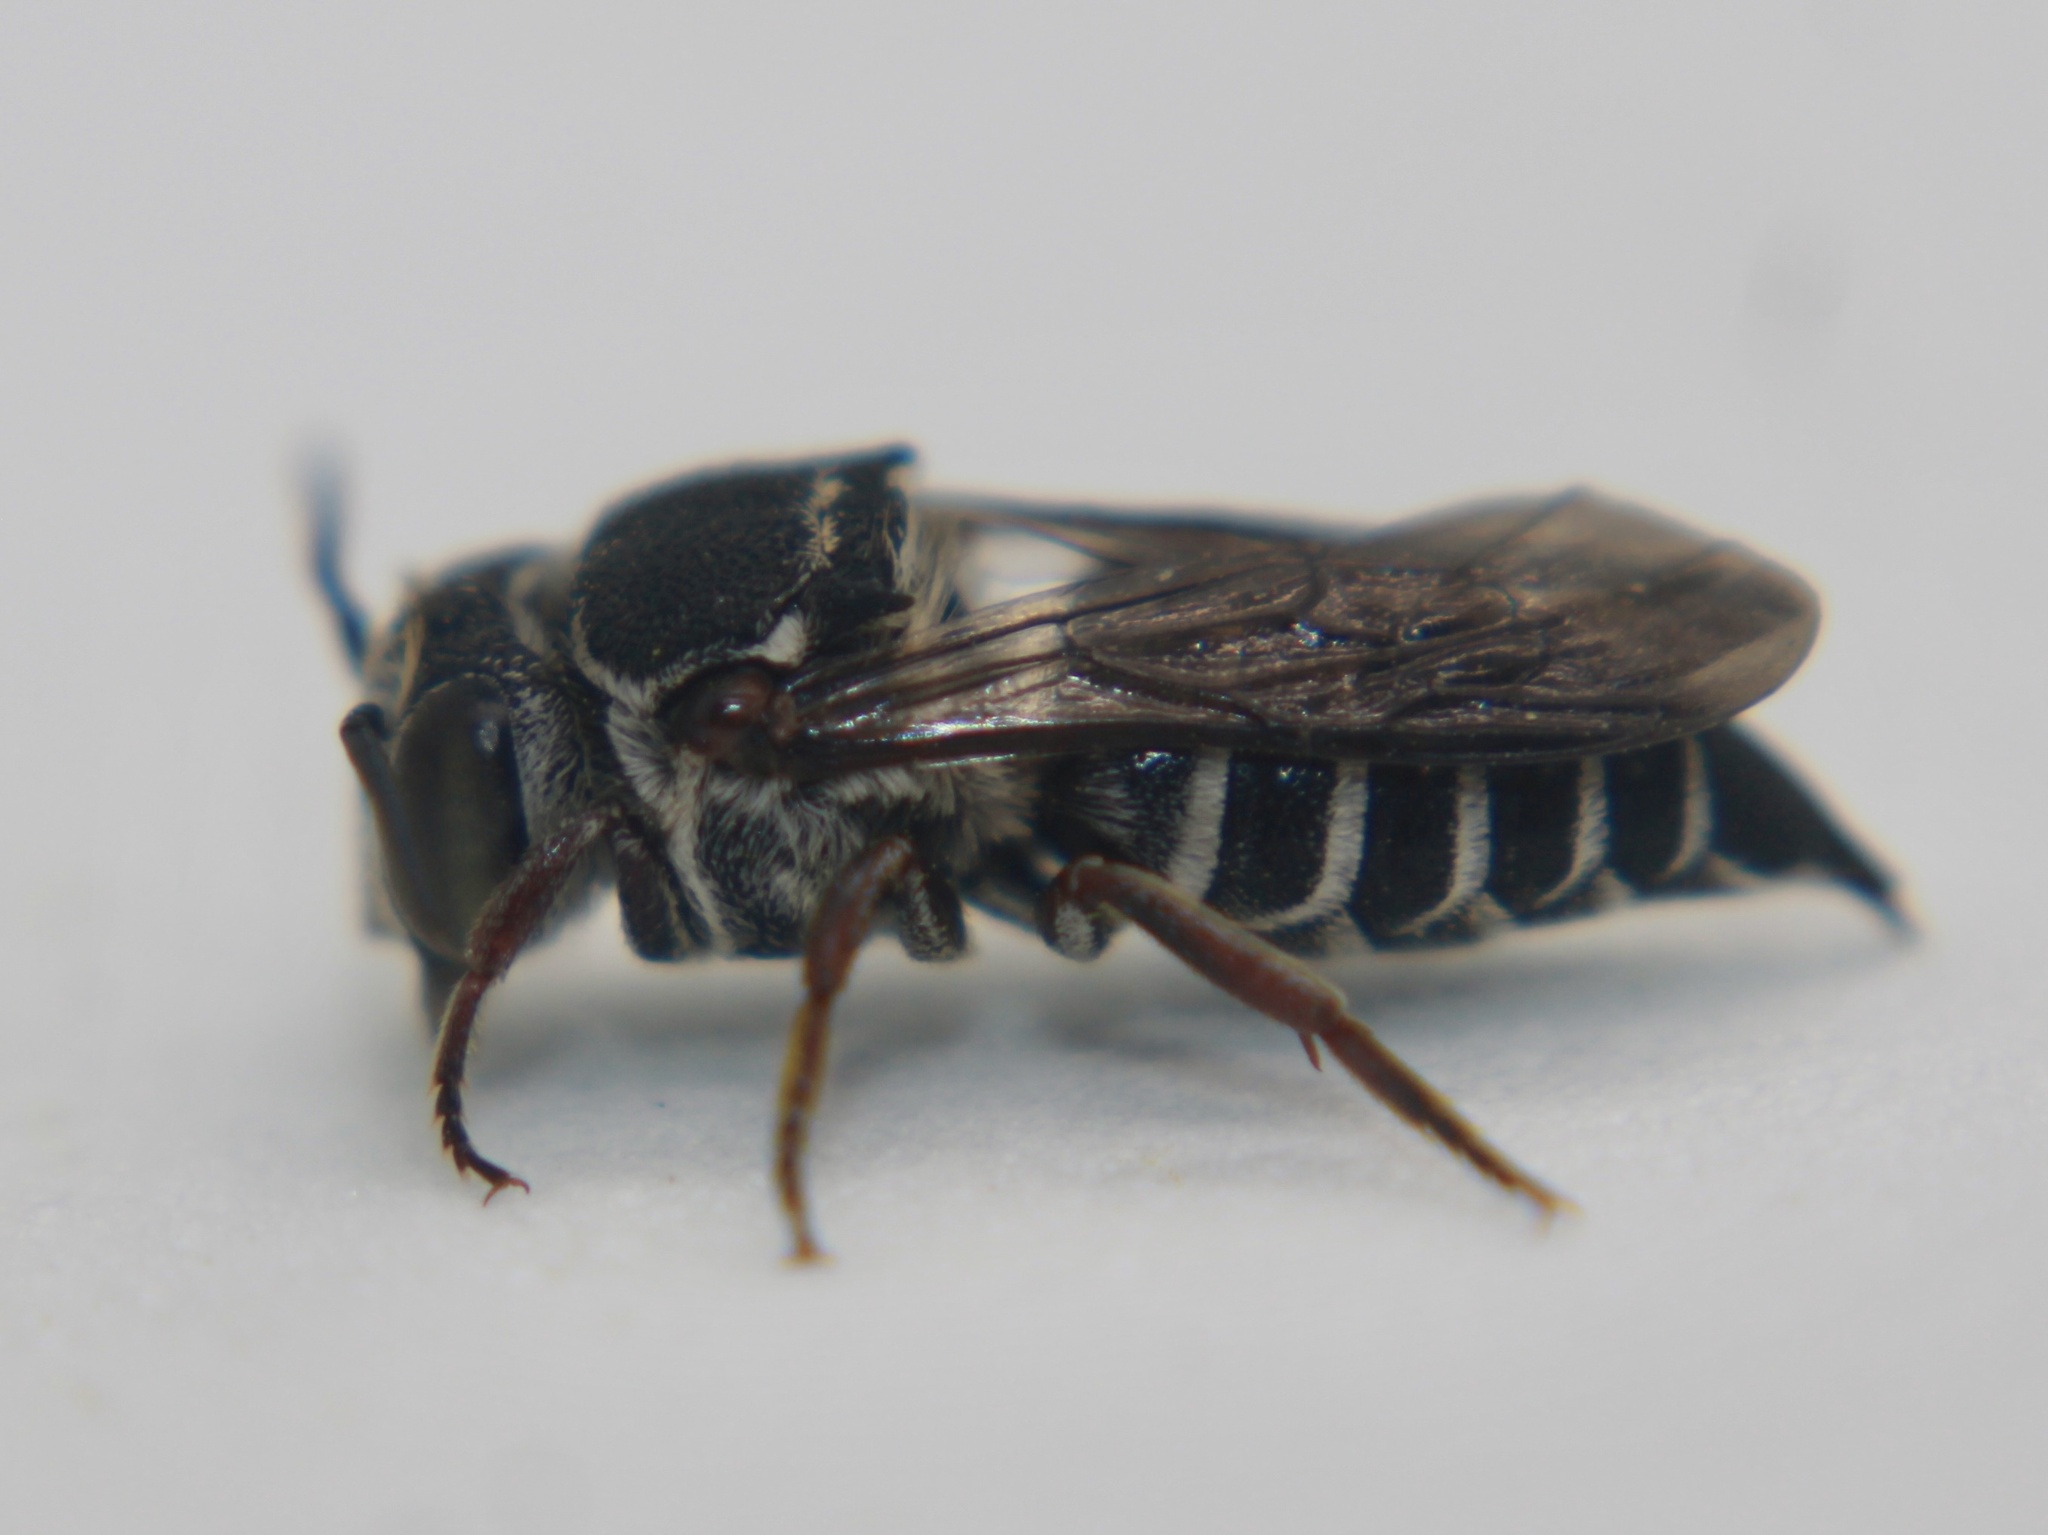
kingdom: Animalia
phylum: Arthropoda
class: Insecta
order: Hymenoptera
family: Megachilidae
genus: Coelioxys
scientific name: Coelioxys sayi
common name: Say's cuckoo leaf-cutter bee
